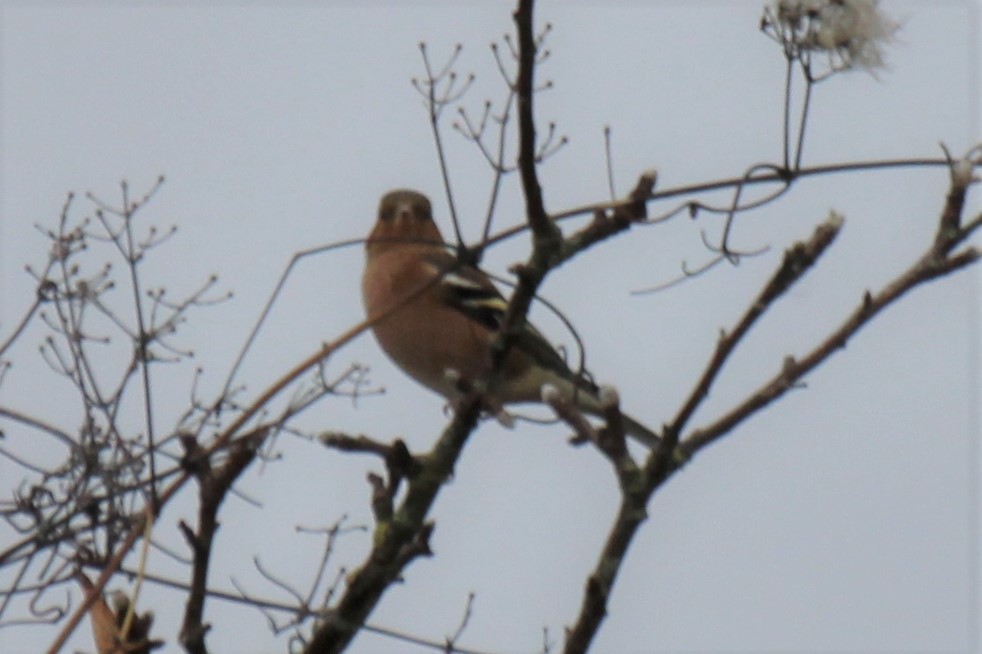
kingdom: Animalia
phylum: Chordata
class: Aves
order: Passeriformes
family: Fringillidae
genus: Fringilla
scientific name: Fringilla coelebs
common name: Common chaffinch
